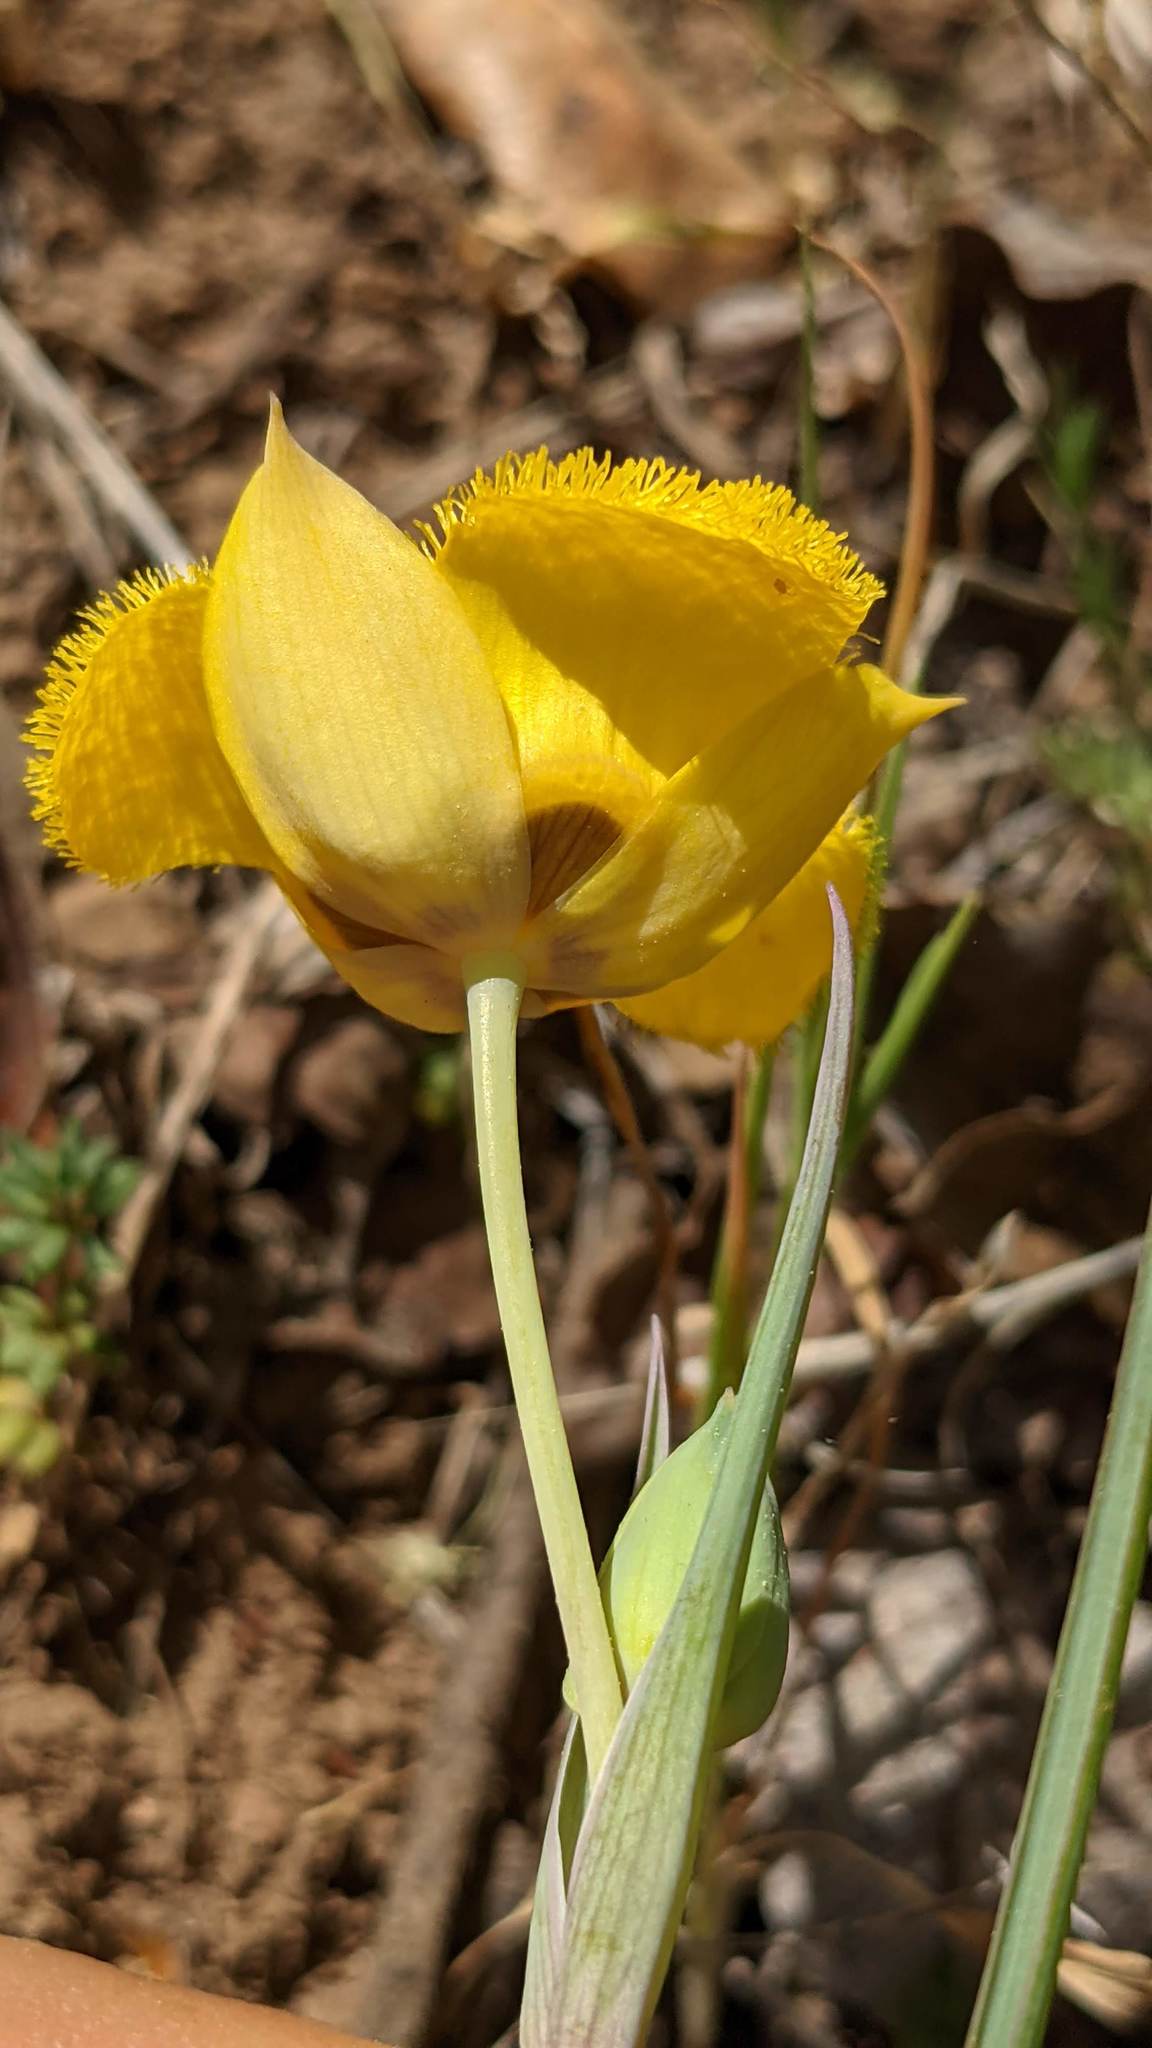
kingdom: Plantae
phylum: Tracheophyta
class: Liliopsida
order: Liliales
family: Liliaceae
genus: Calochortus
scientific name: Calochortus monophyllus
